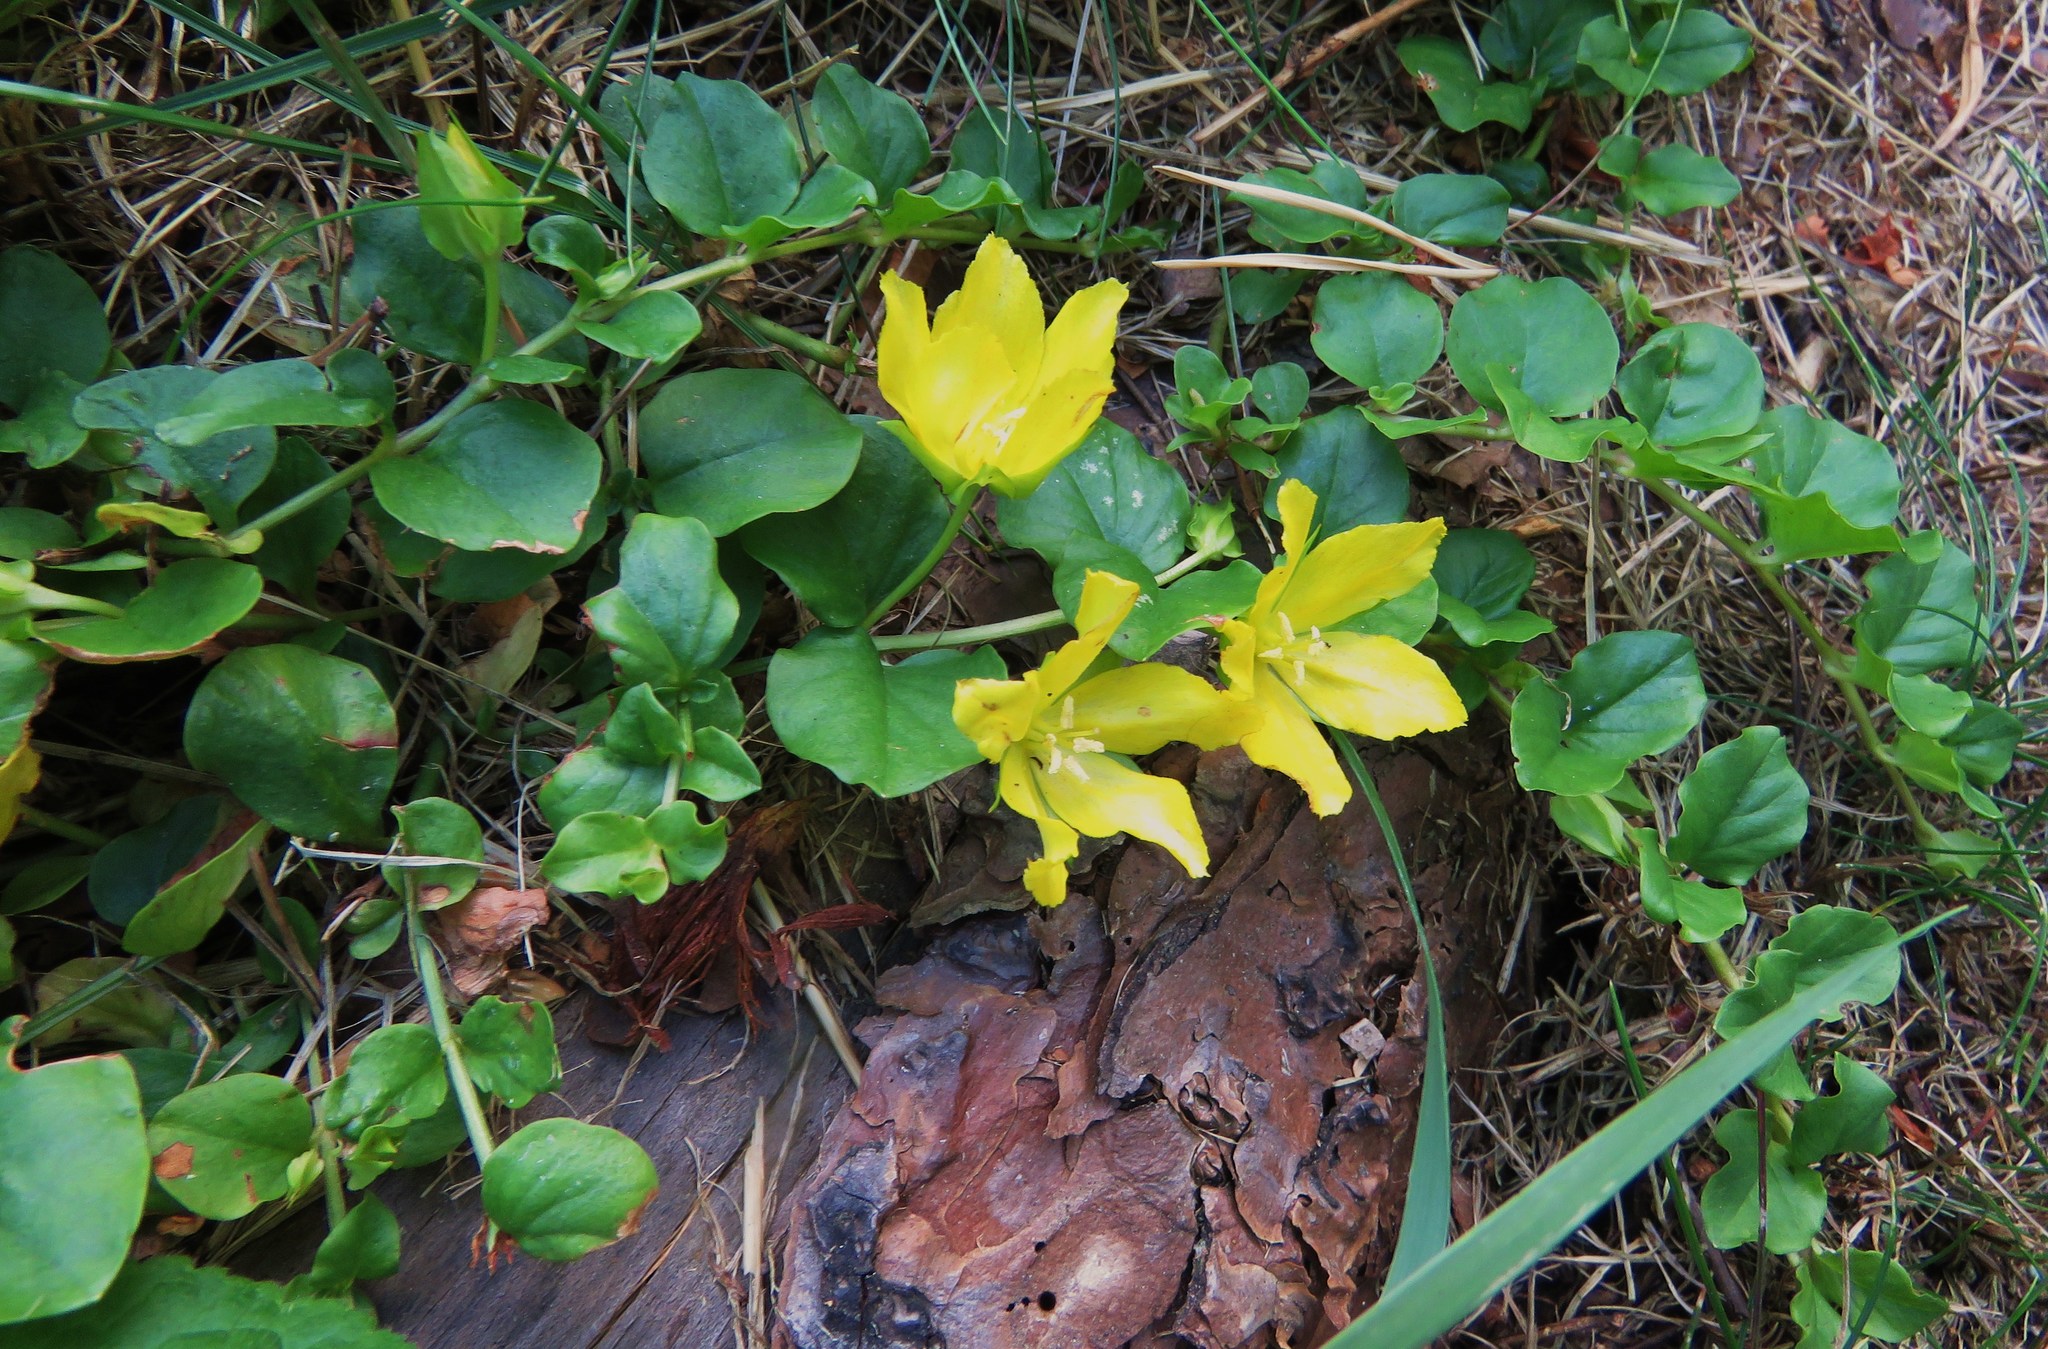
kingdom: Plantae
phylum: Tracheophyta
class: Magnoliopsida
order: Ericales
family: Primulaceae
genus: Lysimachia
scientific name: Lysimachia nummularia
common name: Moneywort
